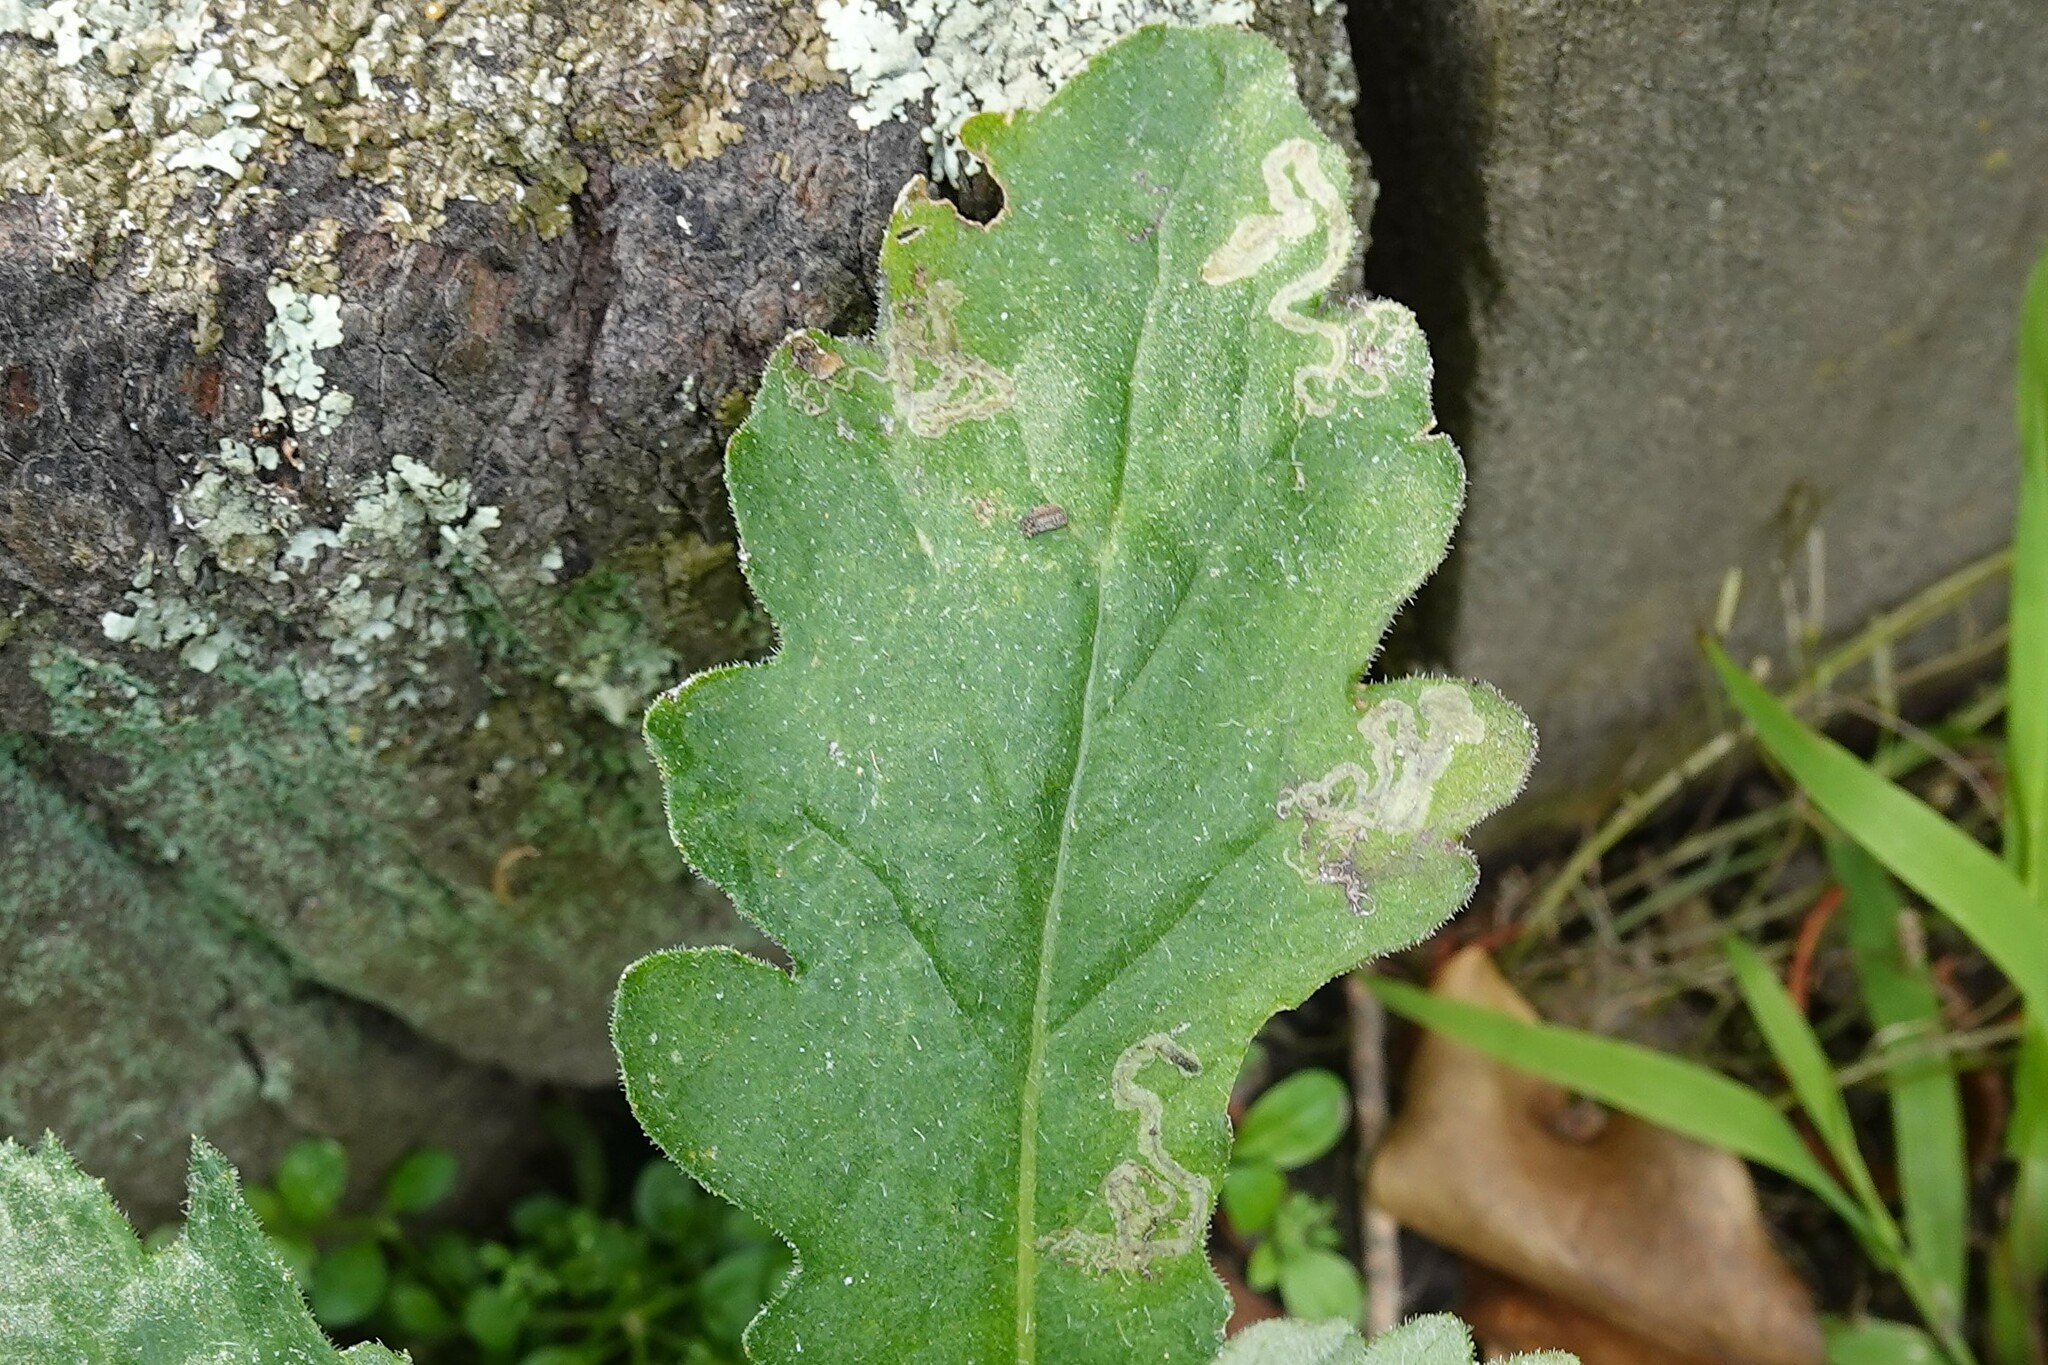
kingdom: Animalia
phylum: Arthropoda
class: Insecta
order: Lepidoptera
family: Nepticulidae
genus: Stigmella
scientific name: Stigmella ogygia
